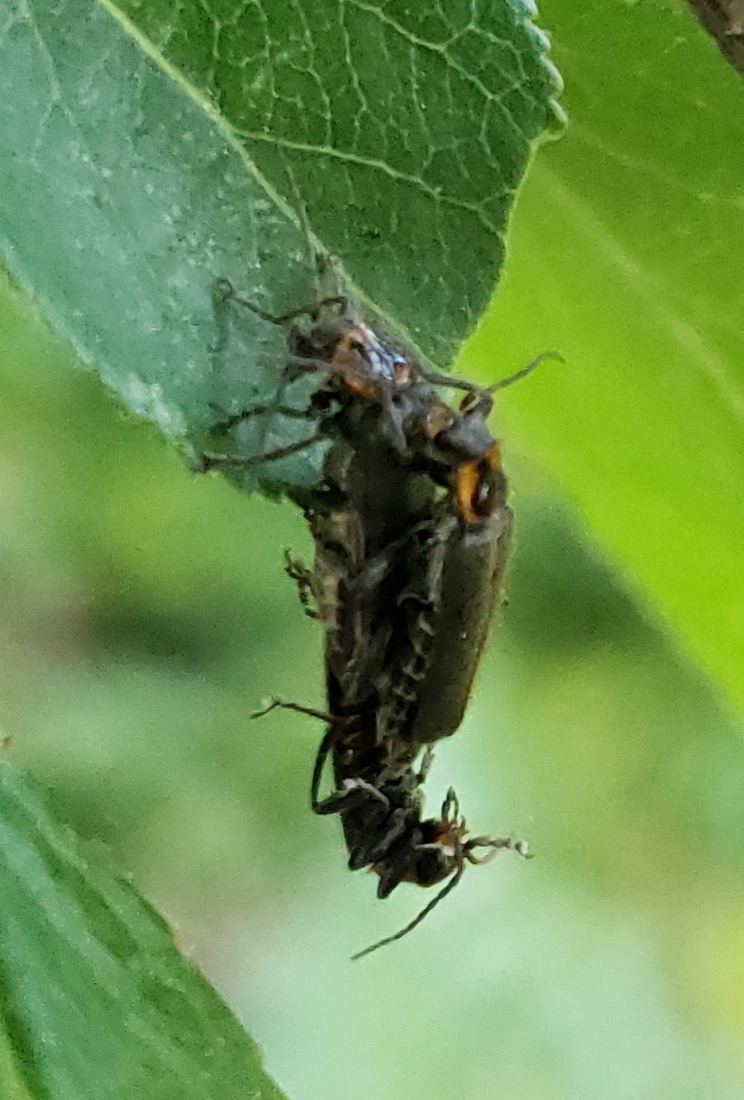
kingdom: Animalia
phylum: Arthropoda
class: Insecta
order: Coleoptera
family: Cantharidae
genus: Cyrtomoptera
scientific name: Cyrtomoptera divisa
